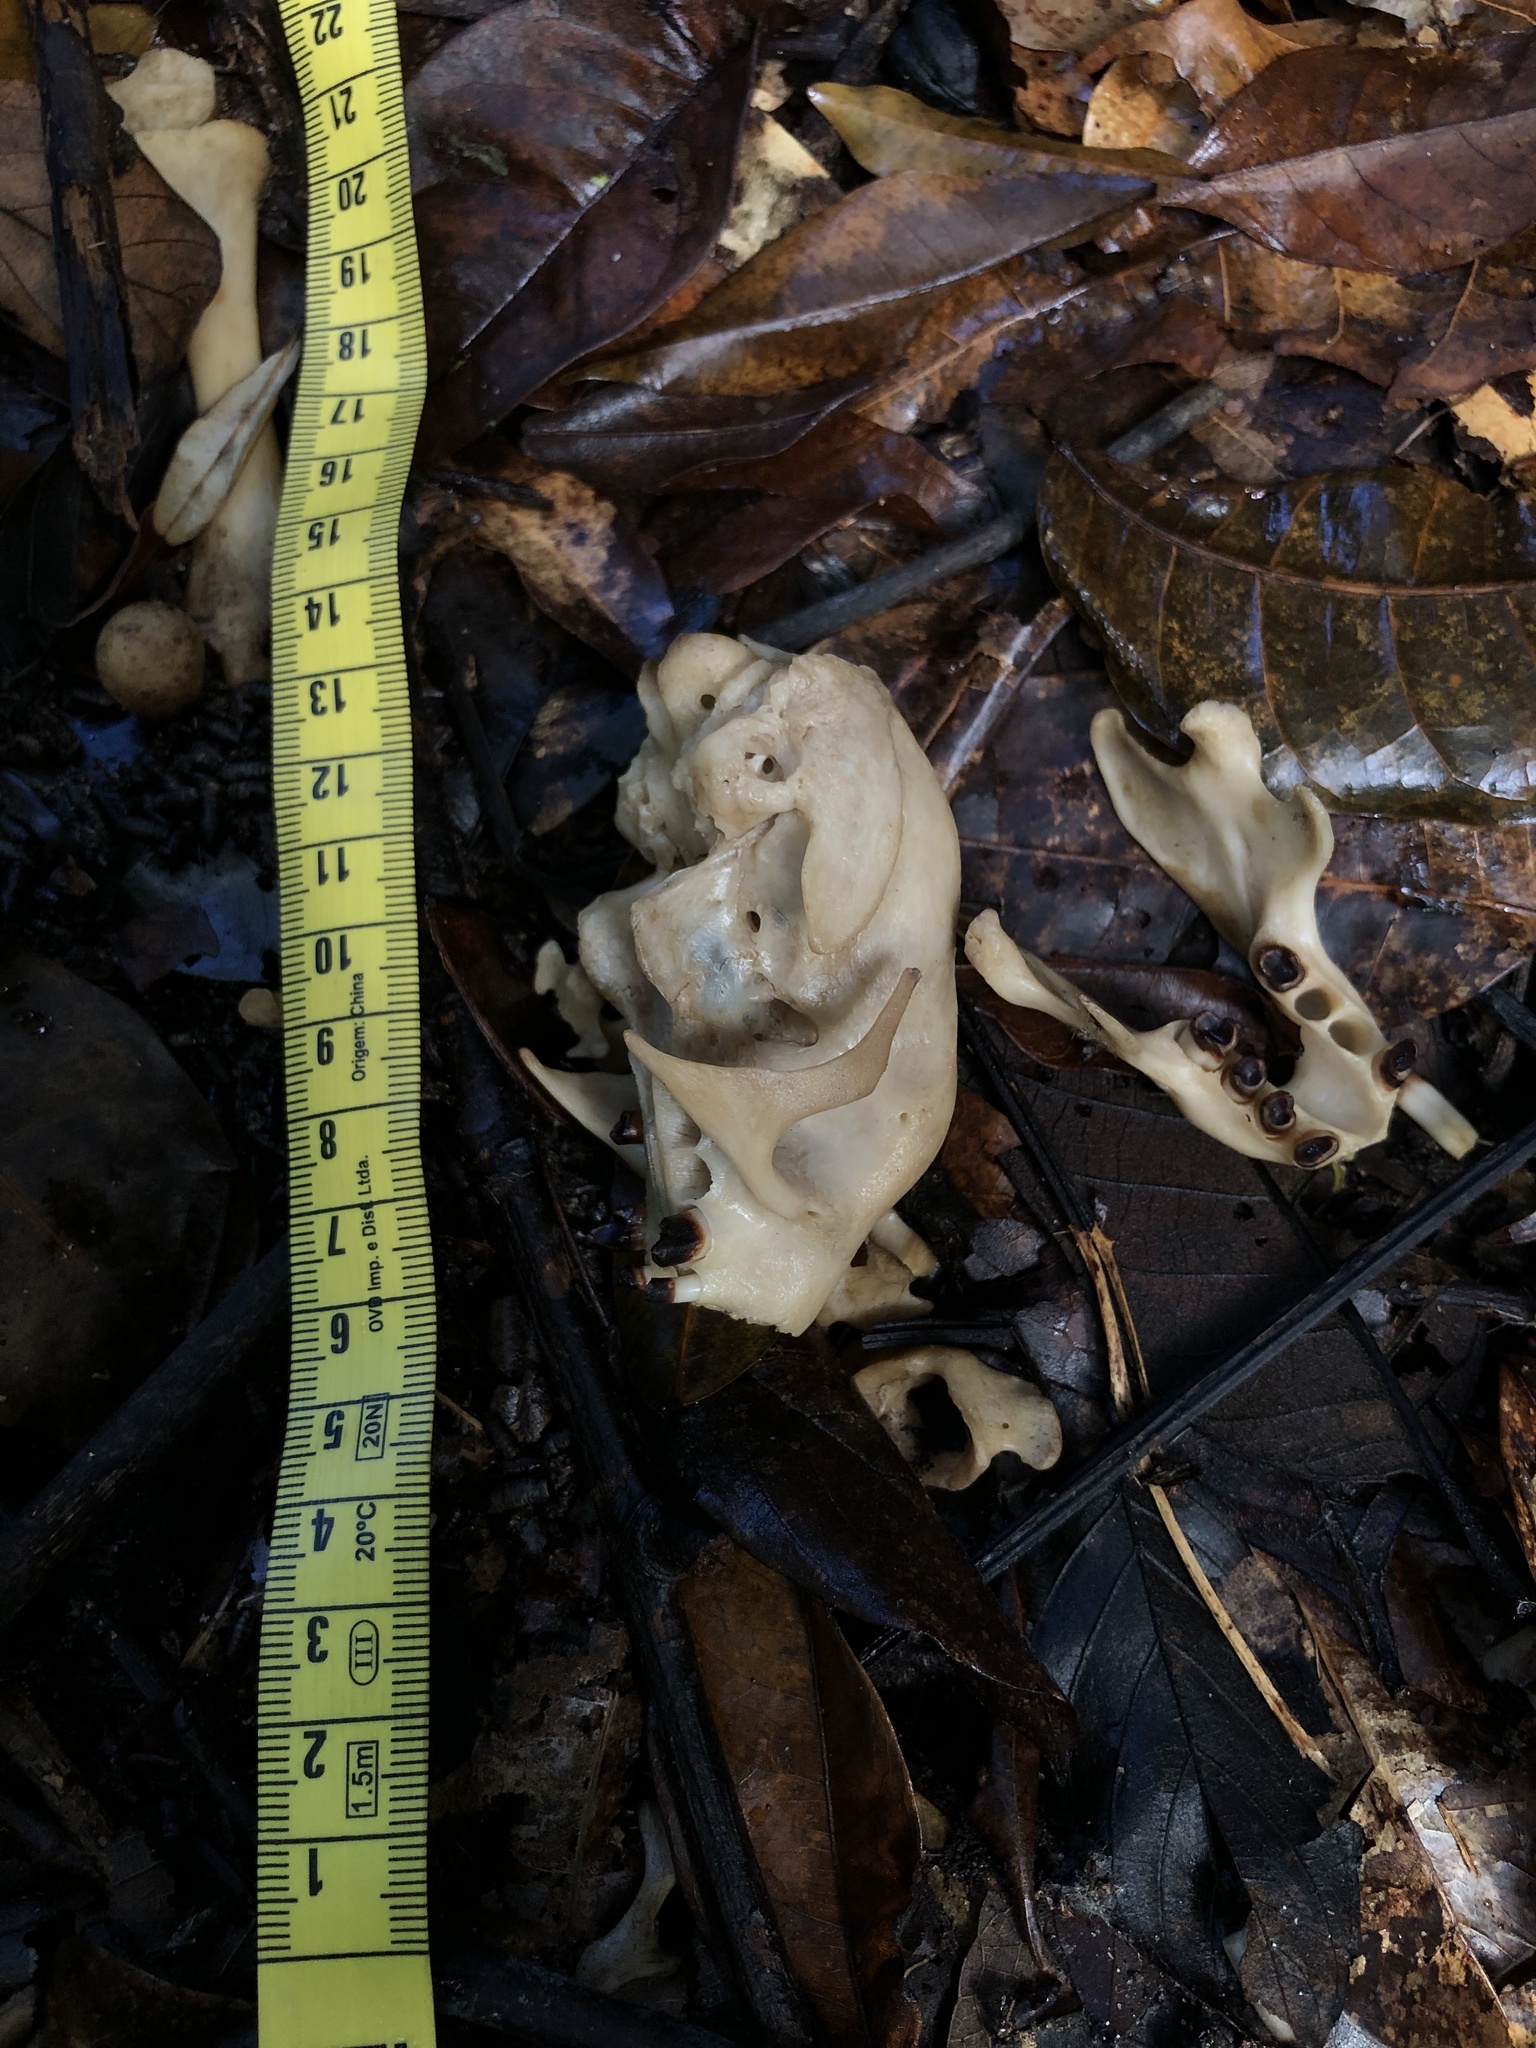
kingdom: Animalia
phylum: Chordata
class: Mammalia
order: Pilosa
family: Bradypodidae
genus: Bradypus
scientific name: Bradypus variegatus
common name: Brown-throated three-toed sloth
